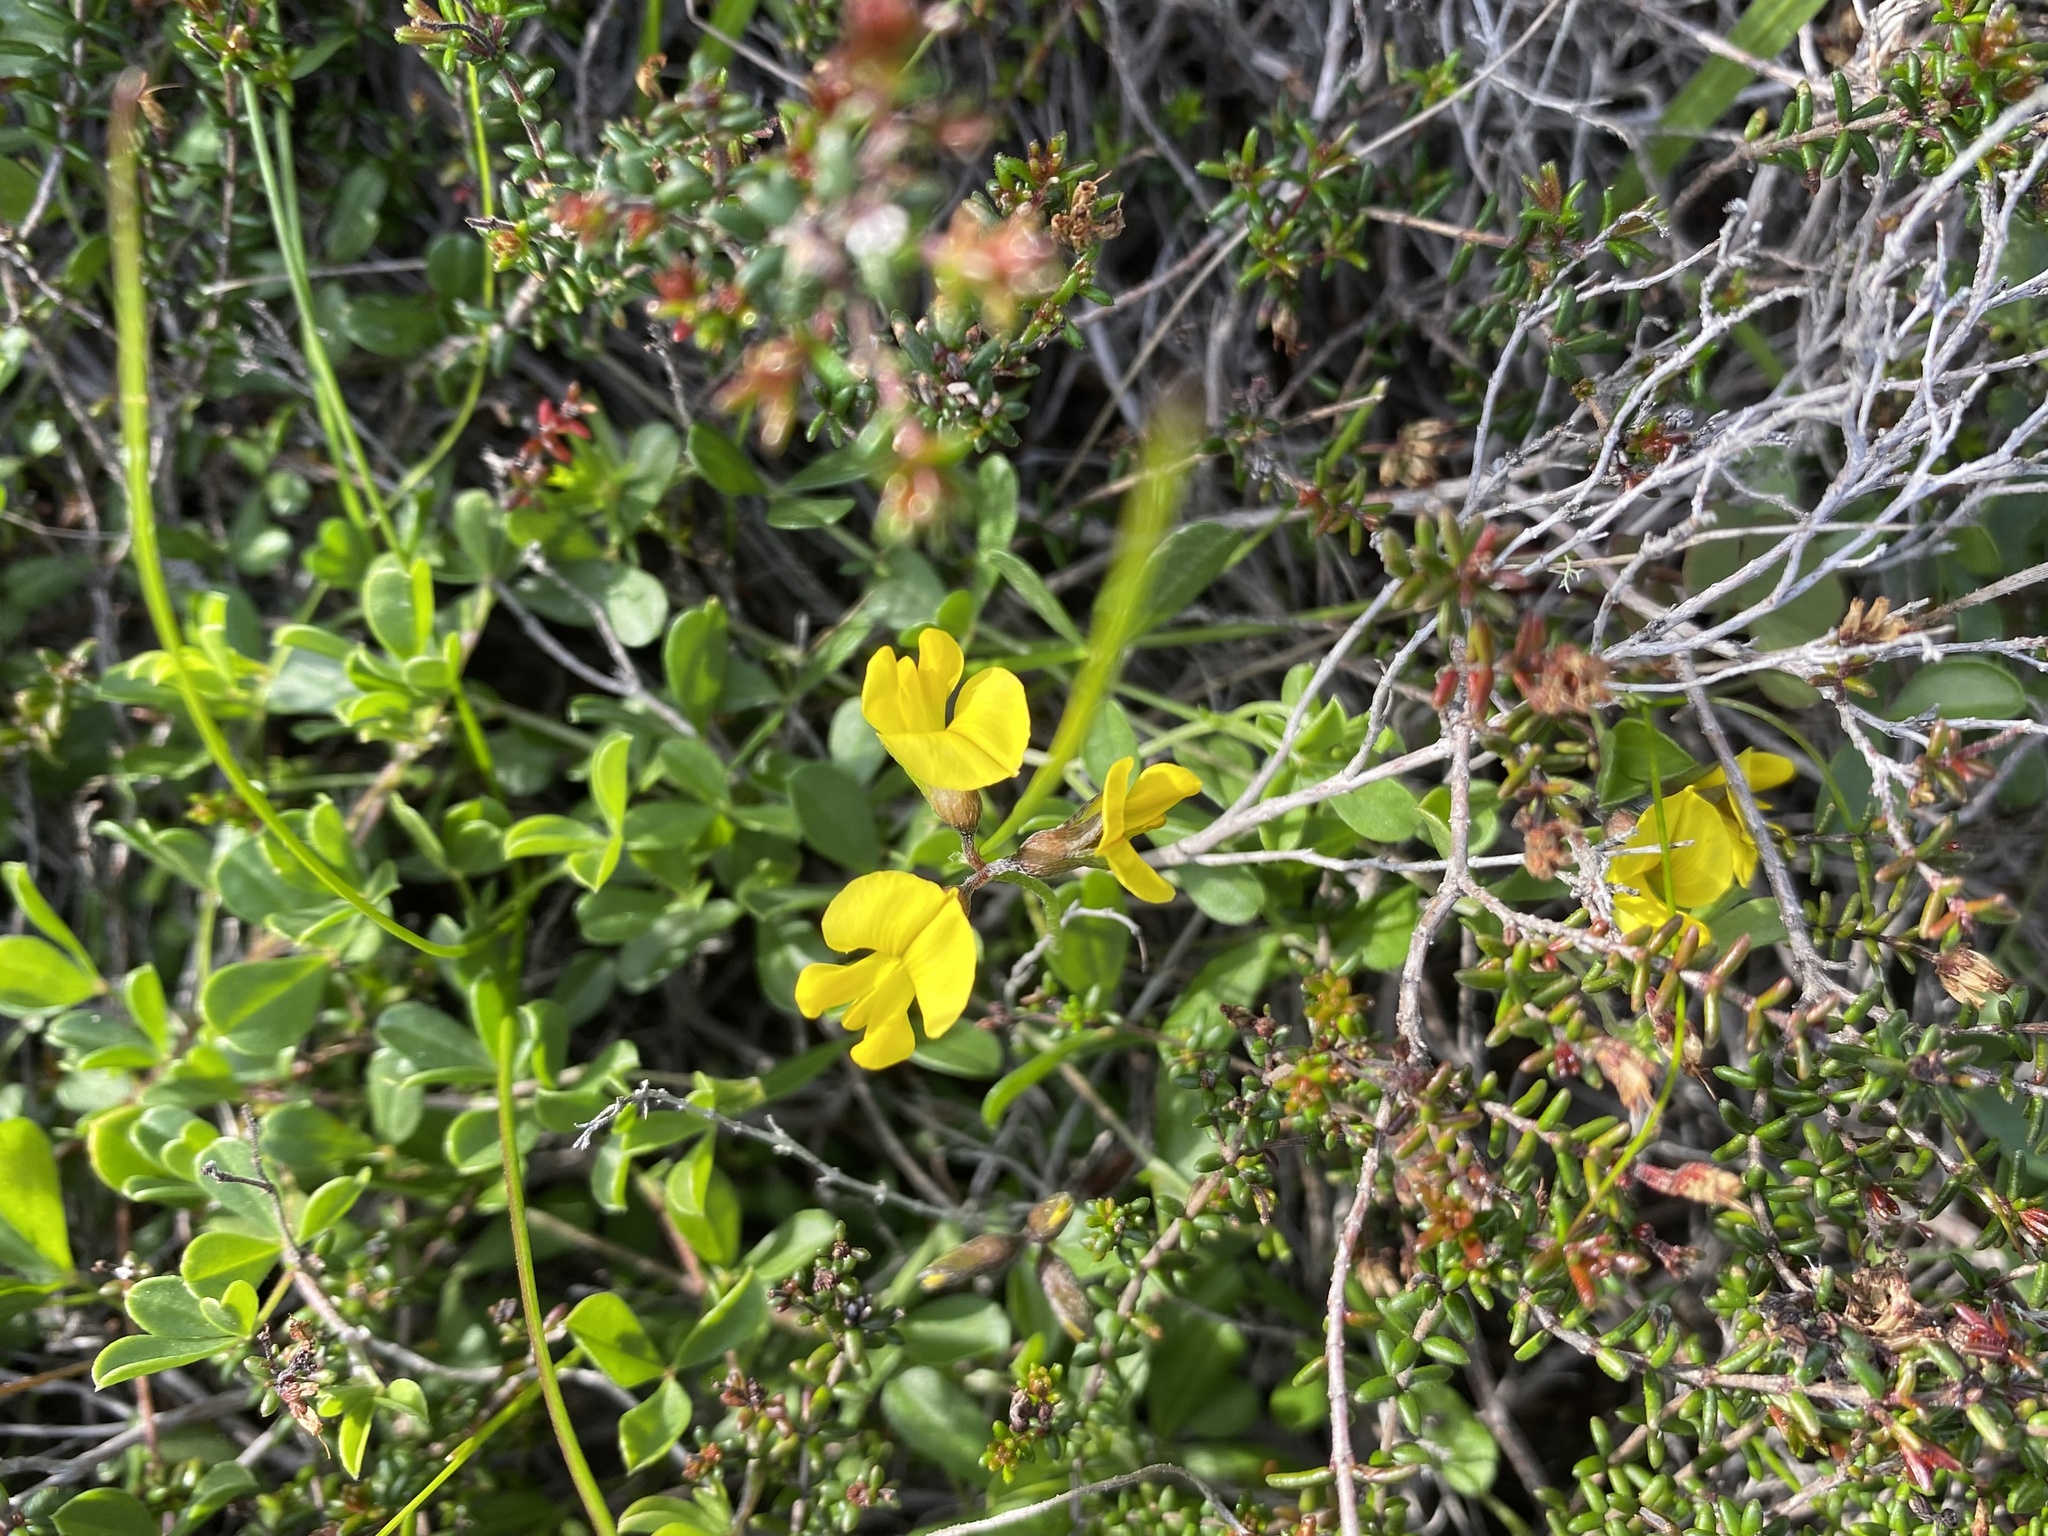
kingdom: Plantae
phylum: Tracheophyta
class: Magnoliopsida
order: Fabales
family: Fabaceae
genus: Lotononis
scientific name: Lotononis umbellata
